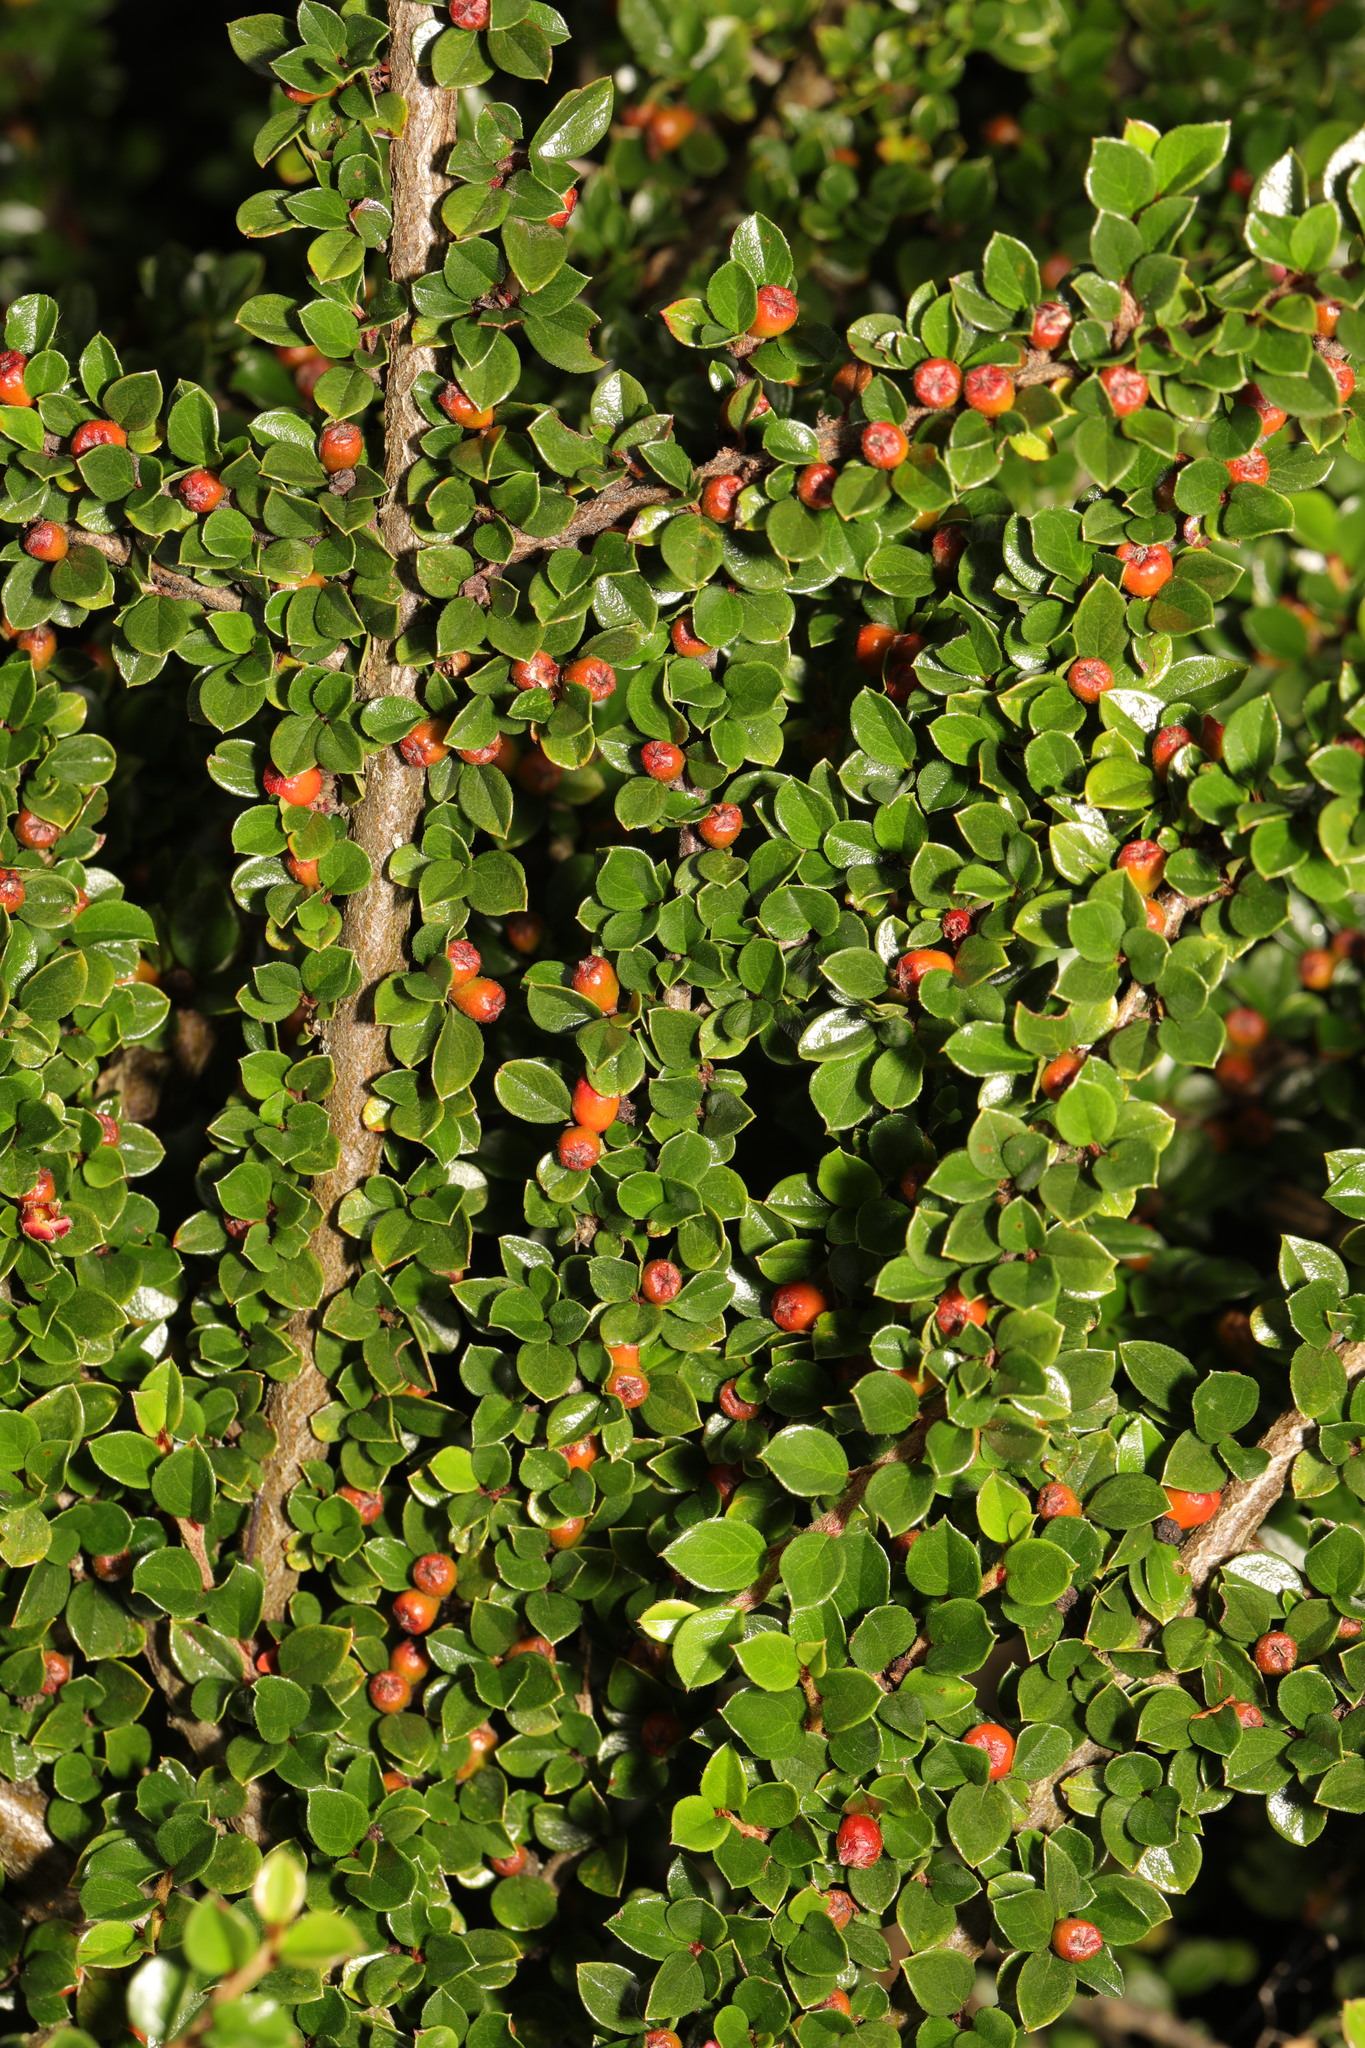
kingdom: Plantae
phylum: Tracheophyta
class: Magnoliopsida
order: Rosales
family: Rosaceae
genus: Cotoneaster
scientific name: Cotoneaster horizontalis
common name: Wall cotoneaster
